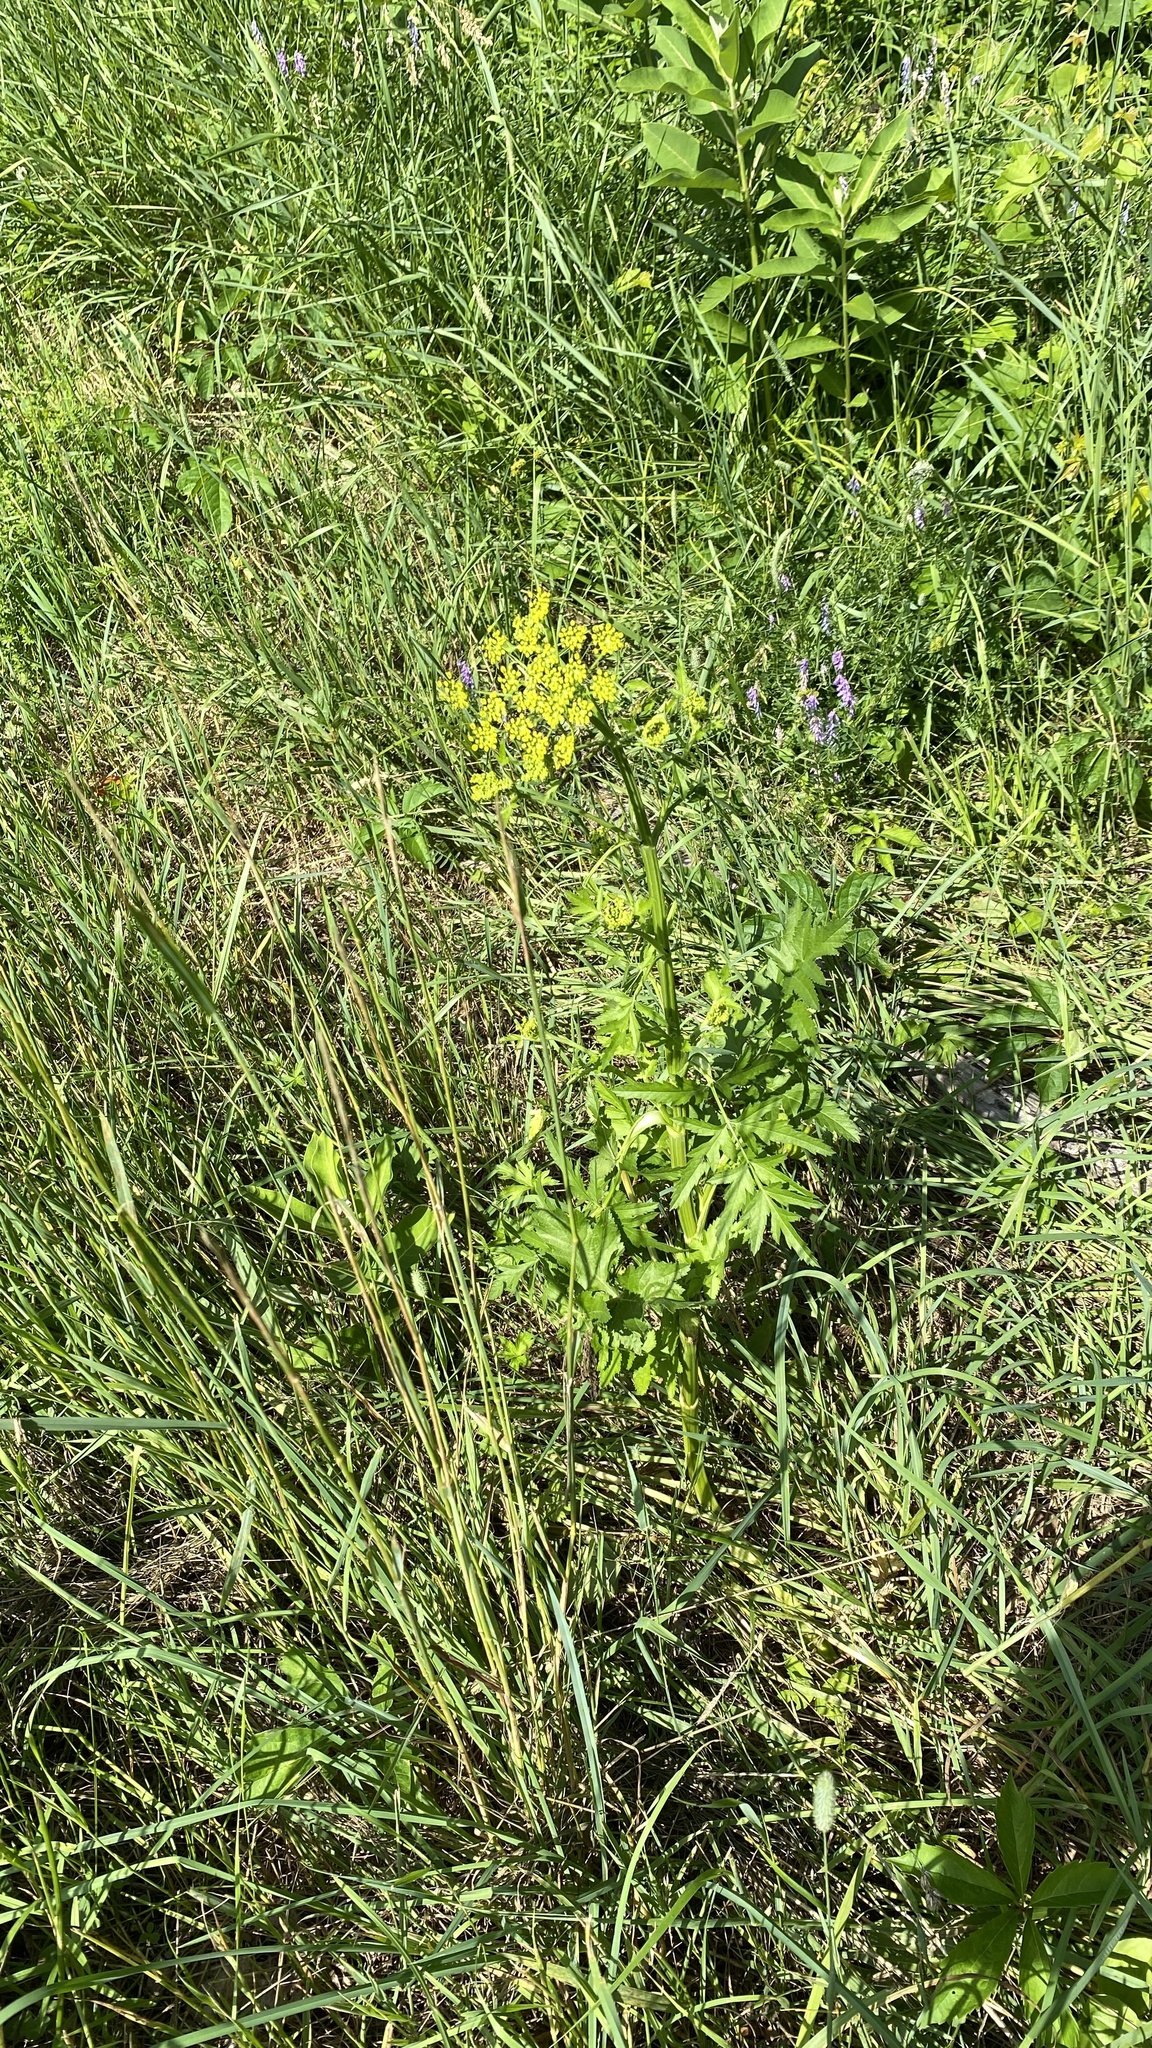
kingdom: Plantae
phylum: Tracheophyta
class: Magnoliopsida
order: Apiales
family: Apiaceae
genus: Pastinaca
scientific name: Pastinaca sativa
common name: Wild parsnip
